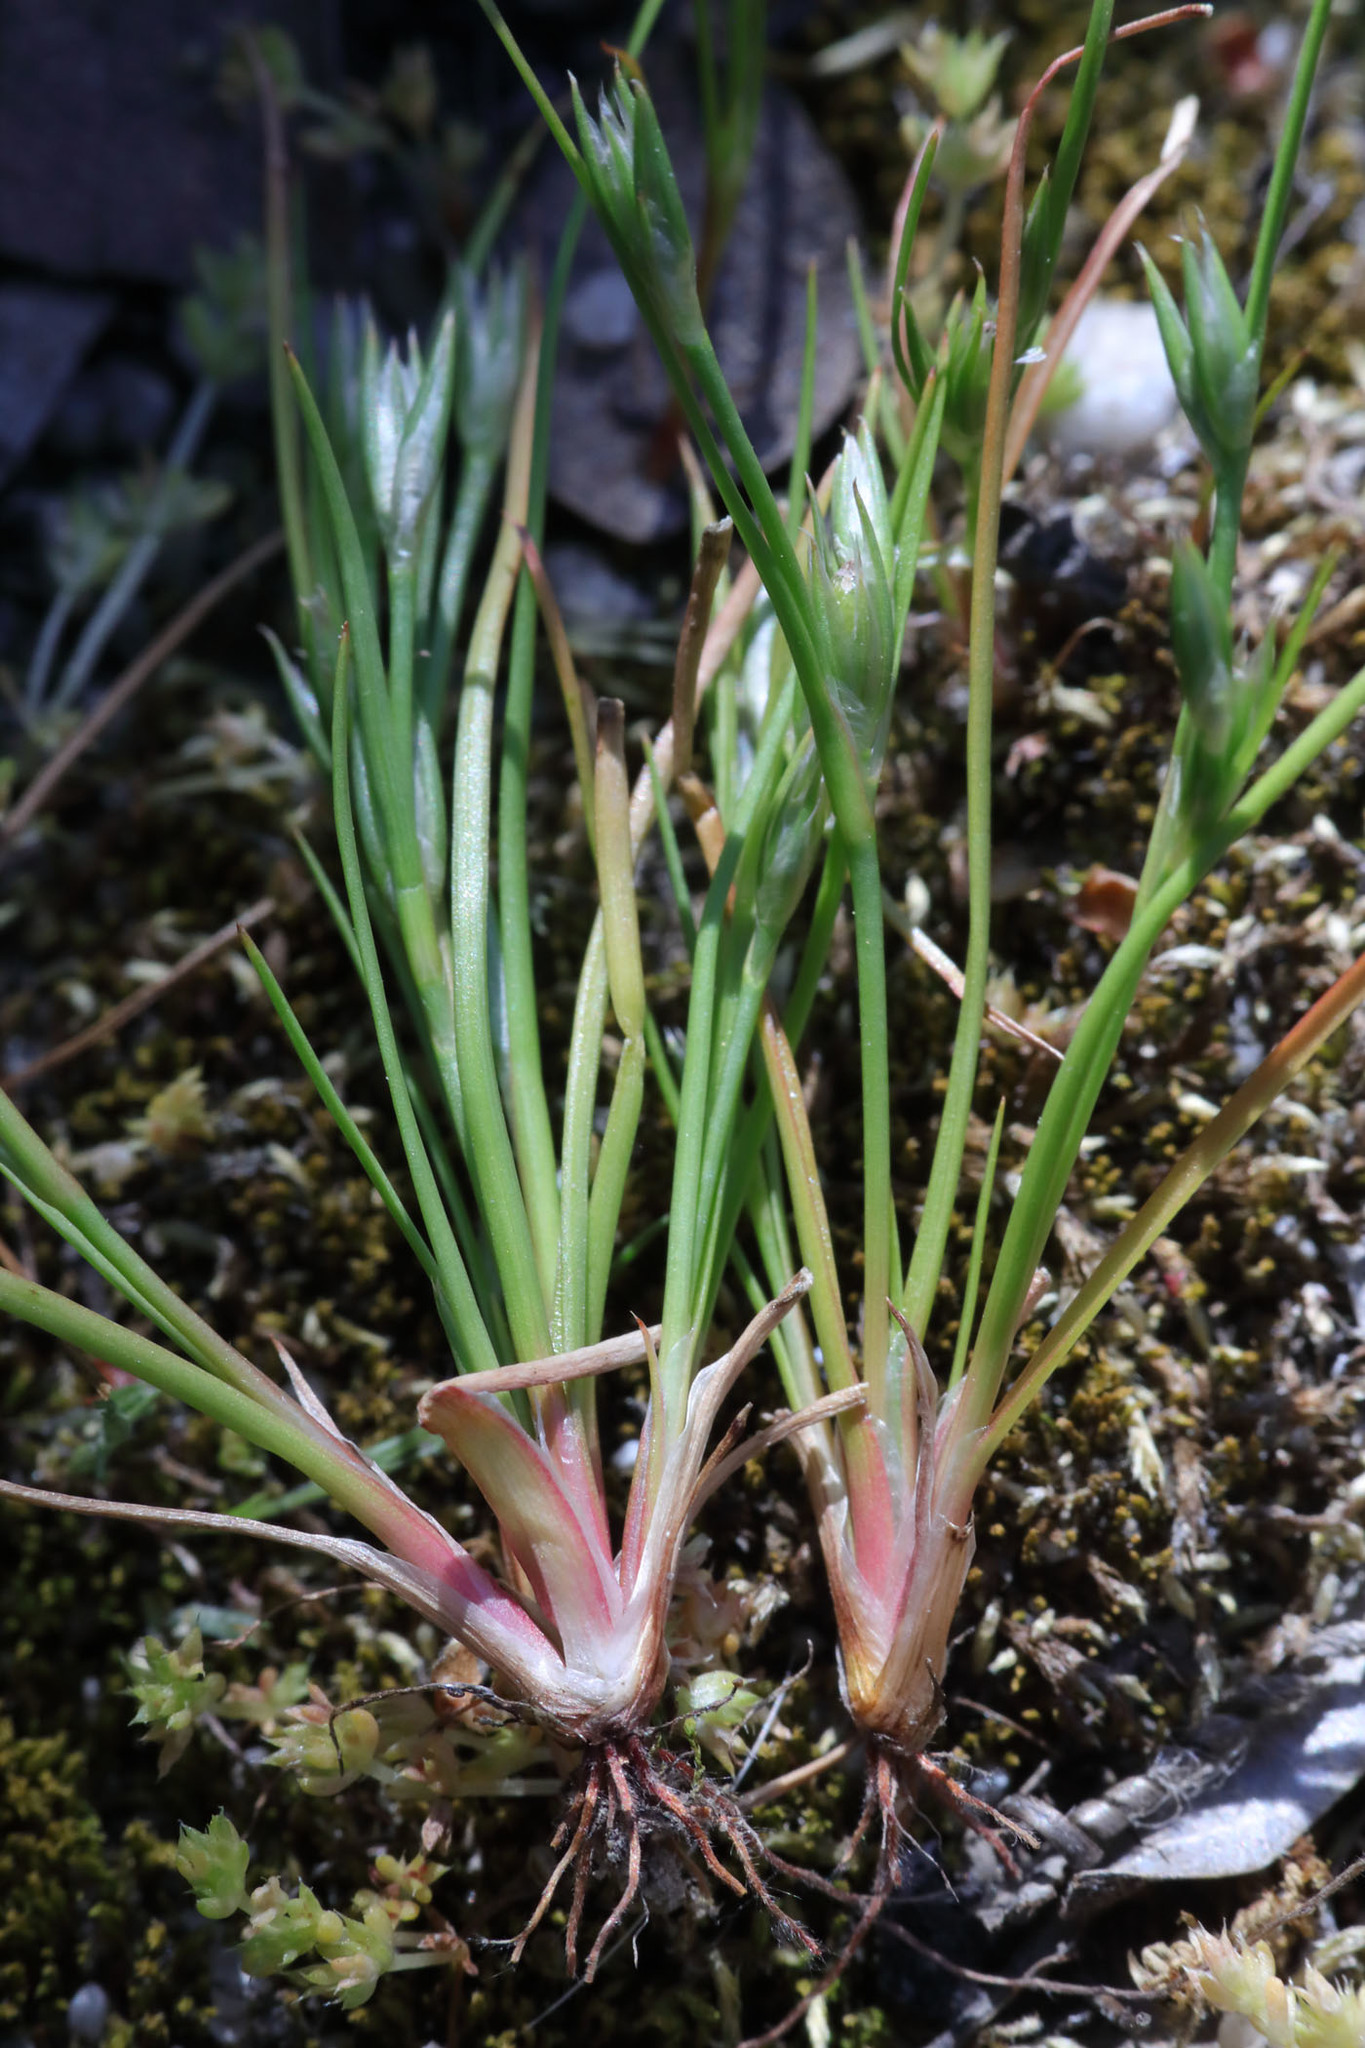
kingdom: Plantae
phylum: Tracheophyta
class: Liliopsida
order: Poales
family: Juncaceae
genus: Juncus
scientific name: Juncus bufonius
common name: Toad rush
